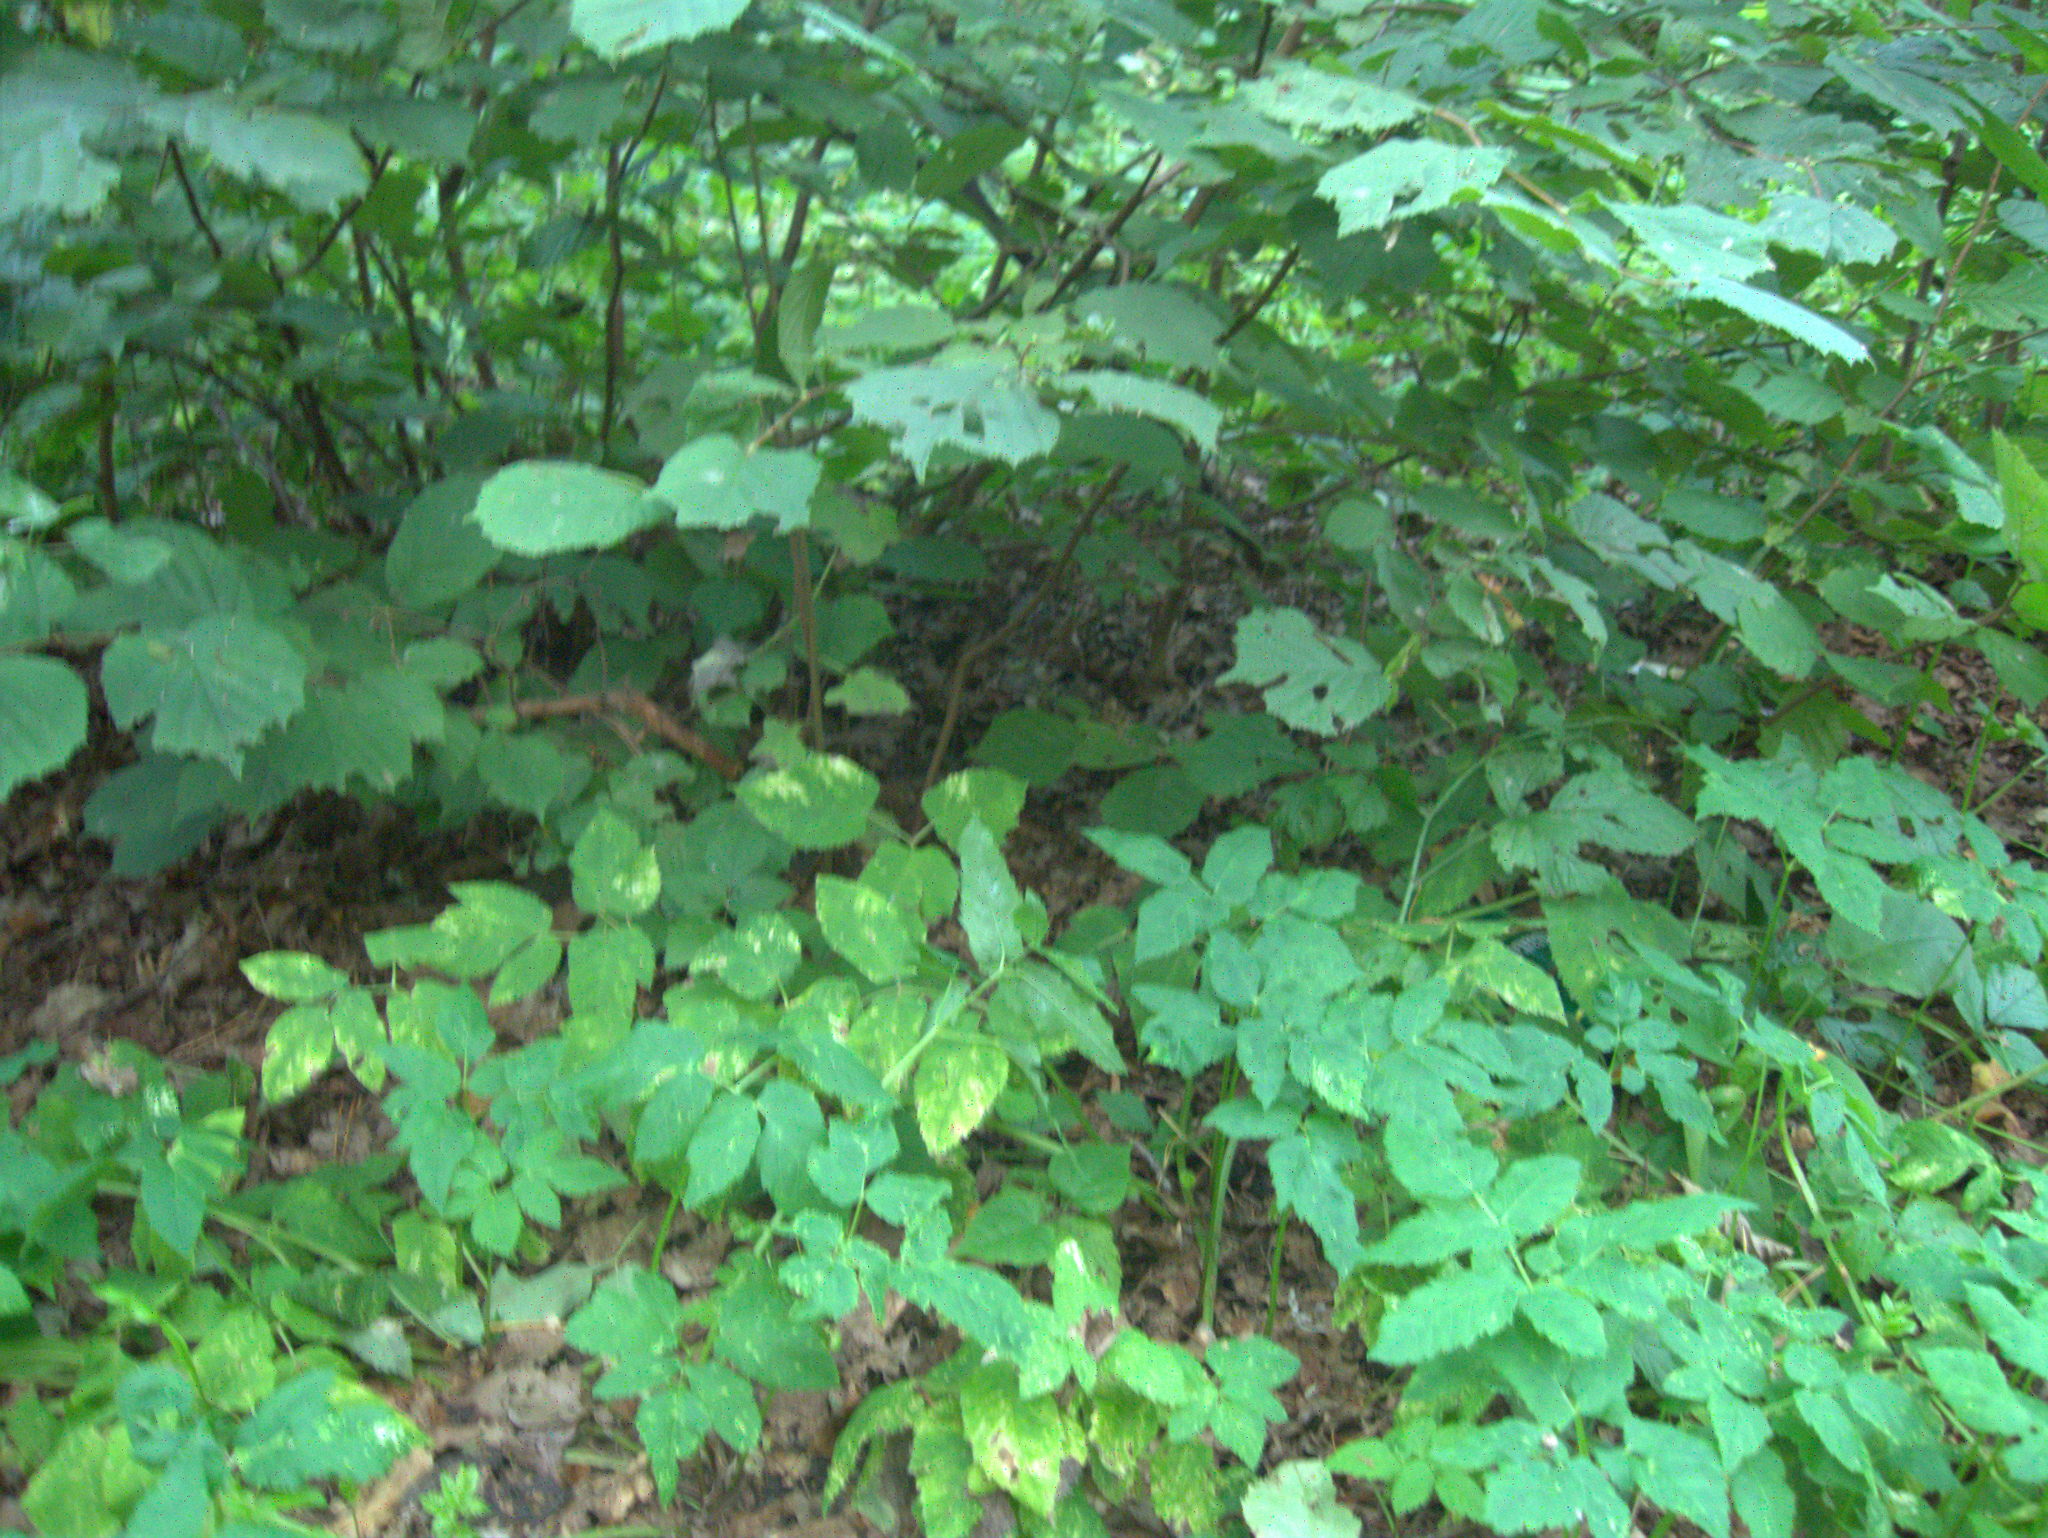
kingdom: Plantae
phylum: Tracheophyta
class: Magnoliopsida
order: Fagales
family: Betulaceae
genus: Corylus
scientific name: Corylus avellana
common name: European hazel
